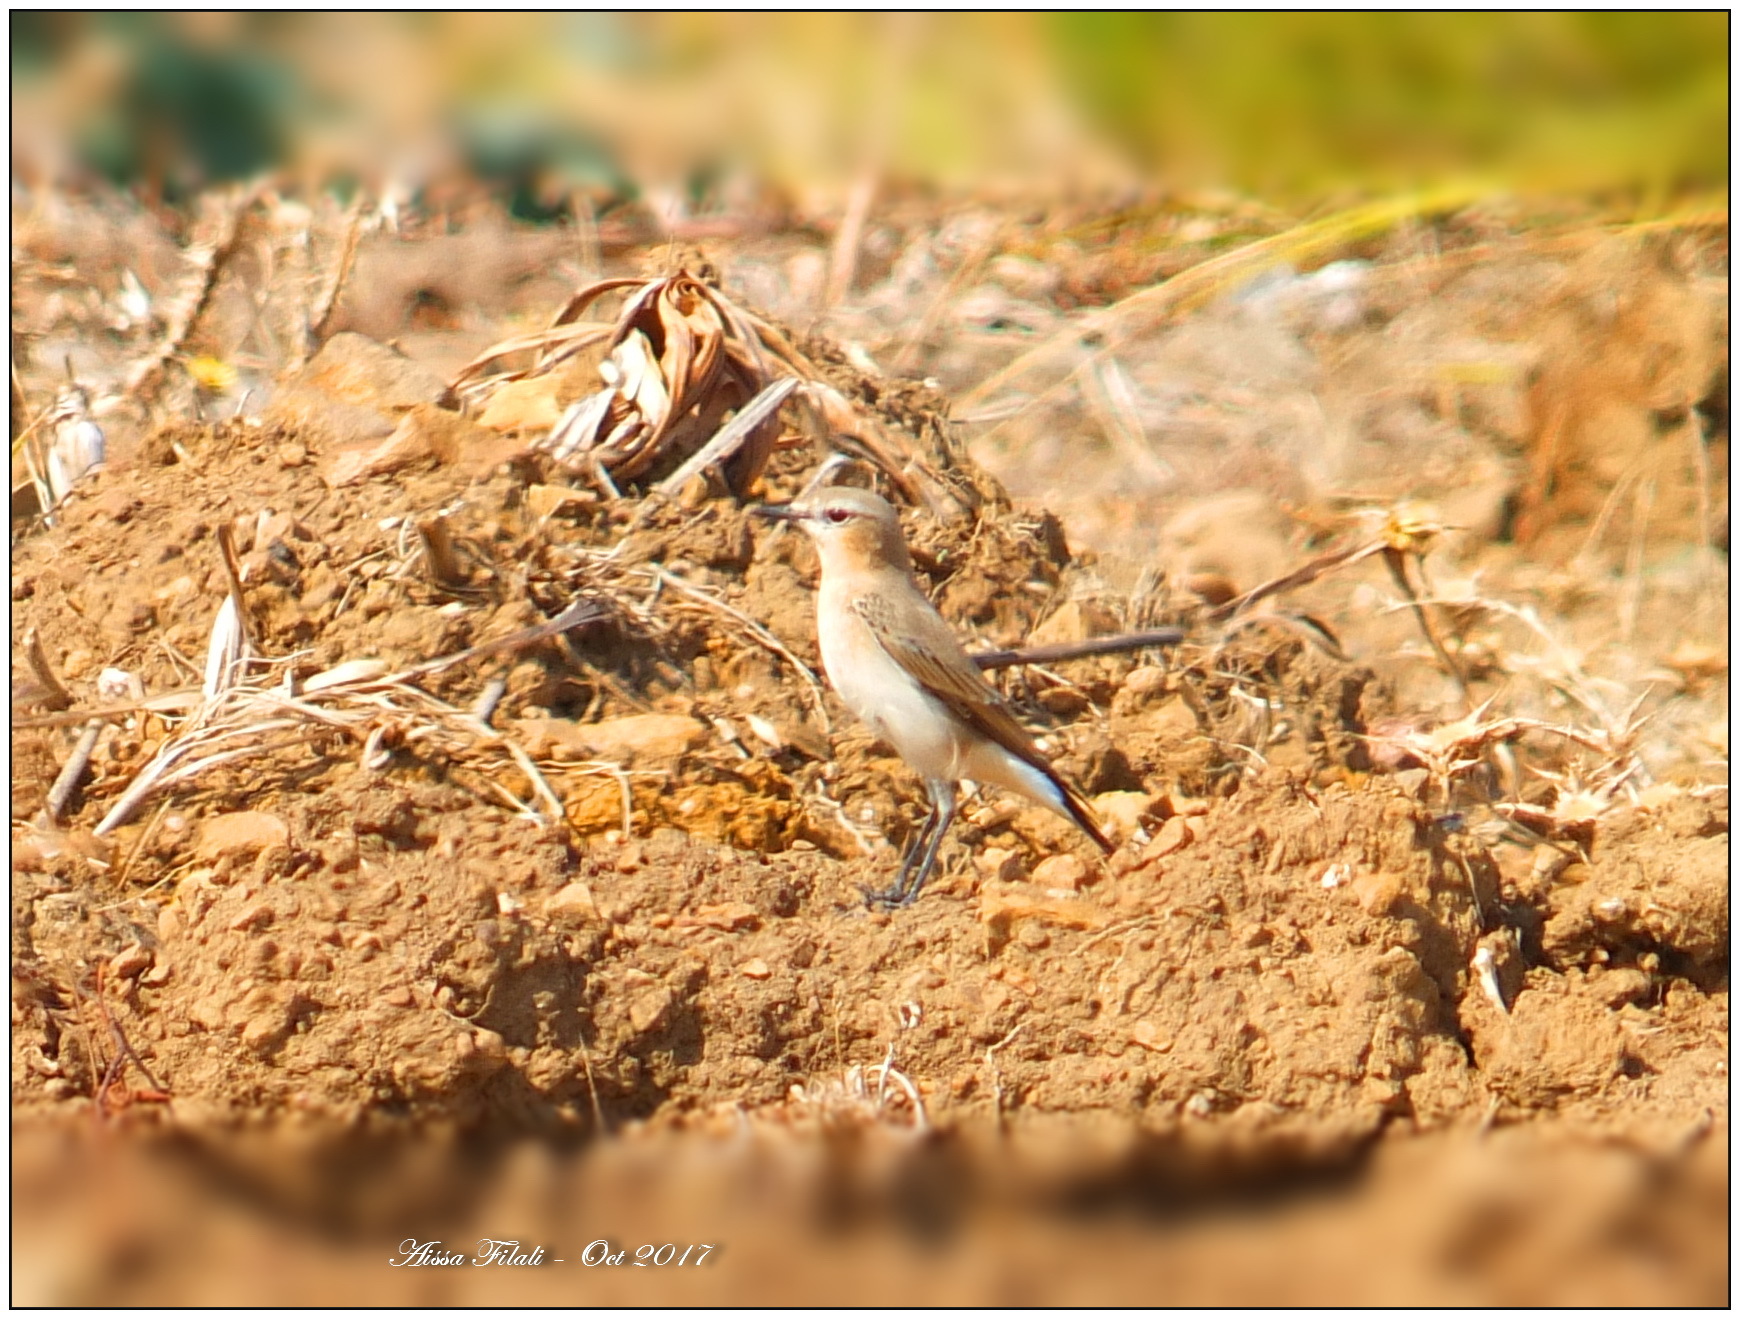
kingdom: Animalia
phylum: Chordata
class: Aves
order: Passeriformes
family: Muscicapidae
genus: Oenanthe
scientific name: Oenanthe oenanthe
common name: Northern wheatear
